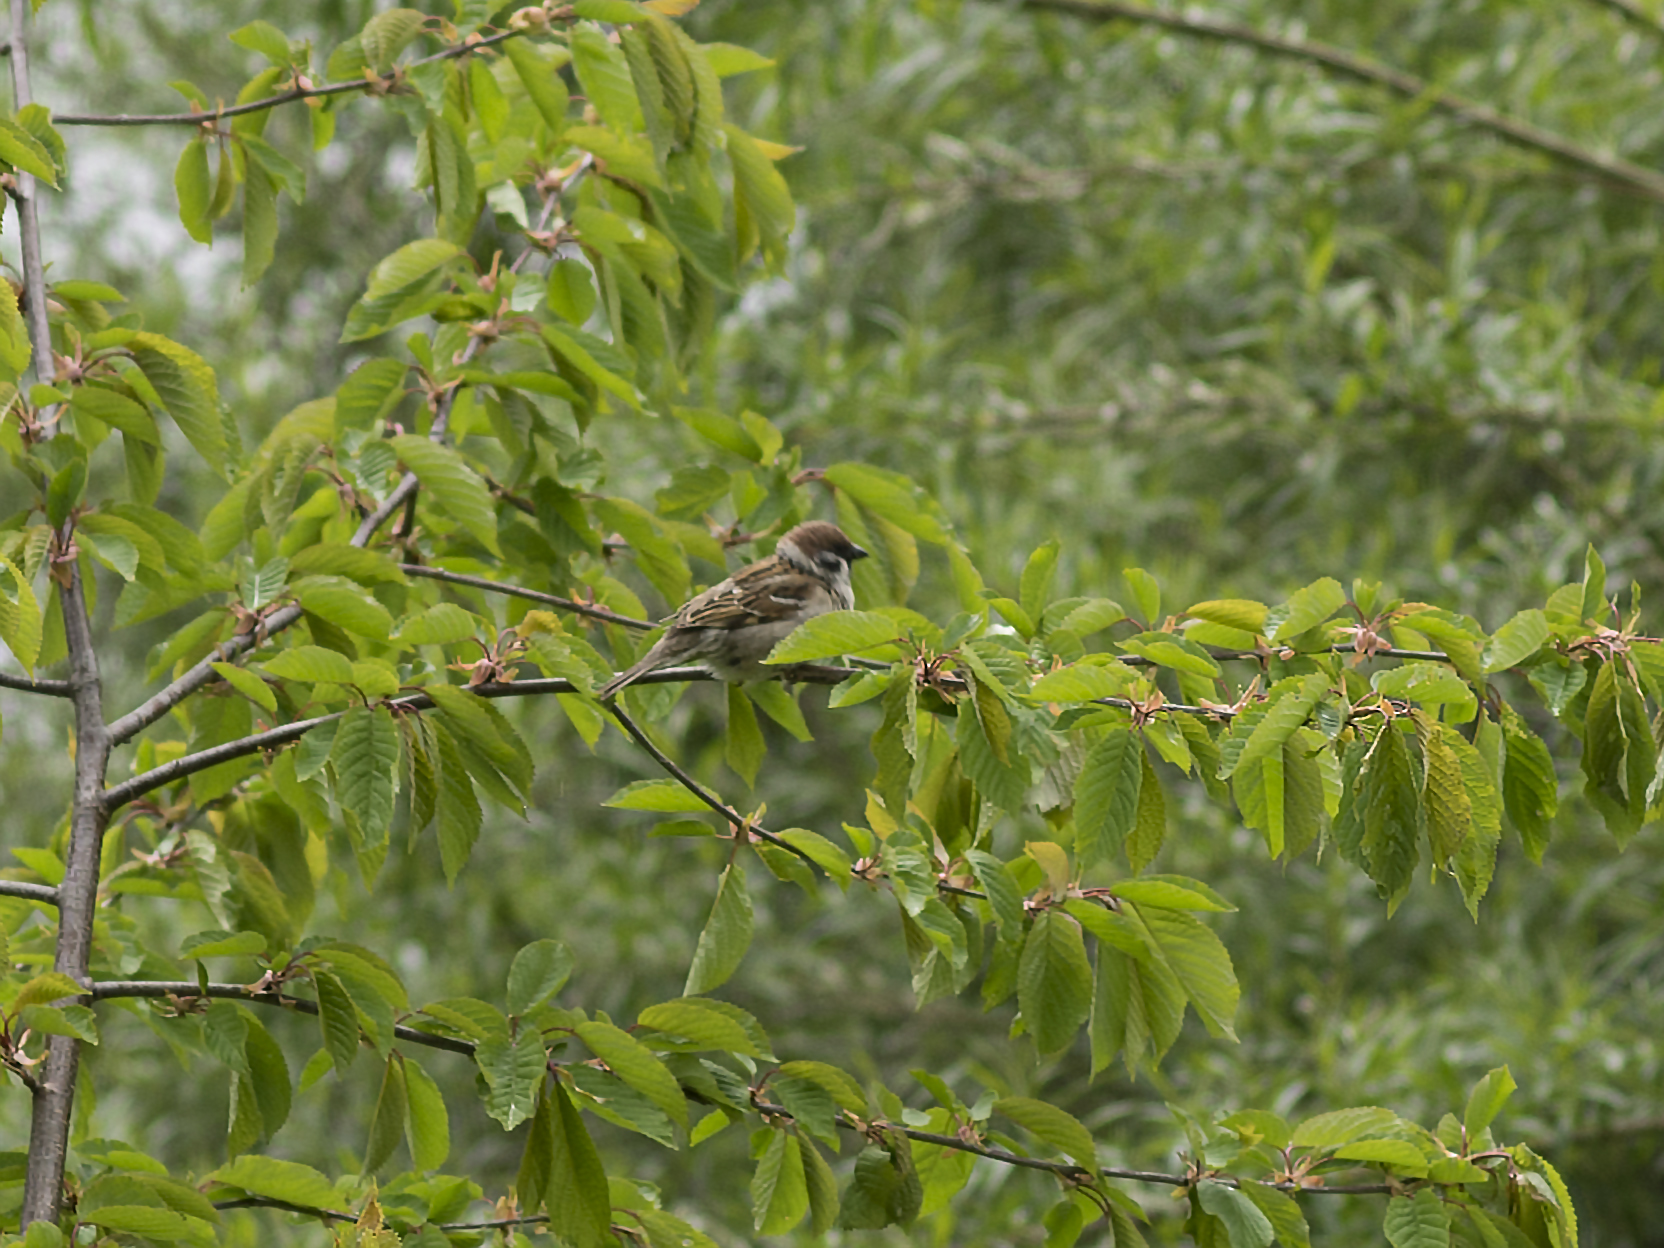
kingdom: Animalia
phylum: Chordata
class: Aves
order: Passeriformes
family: Passeridae
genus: Passer
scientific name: Passer montanus
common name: Eurasian tree sparrow
